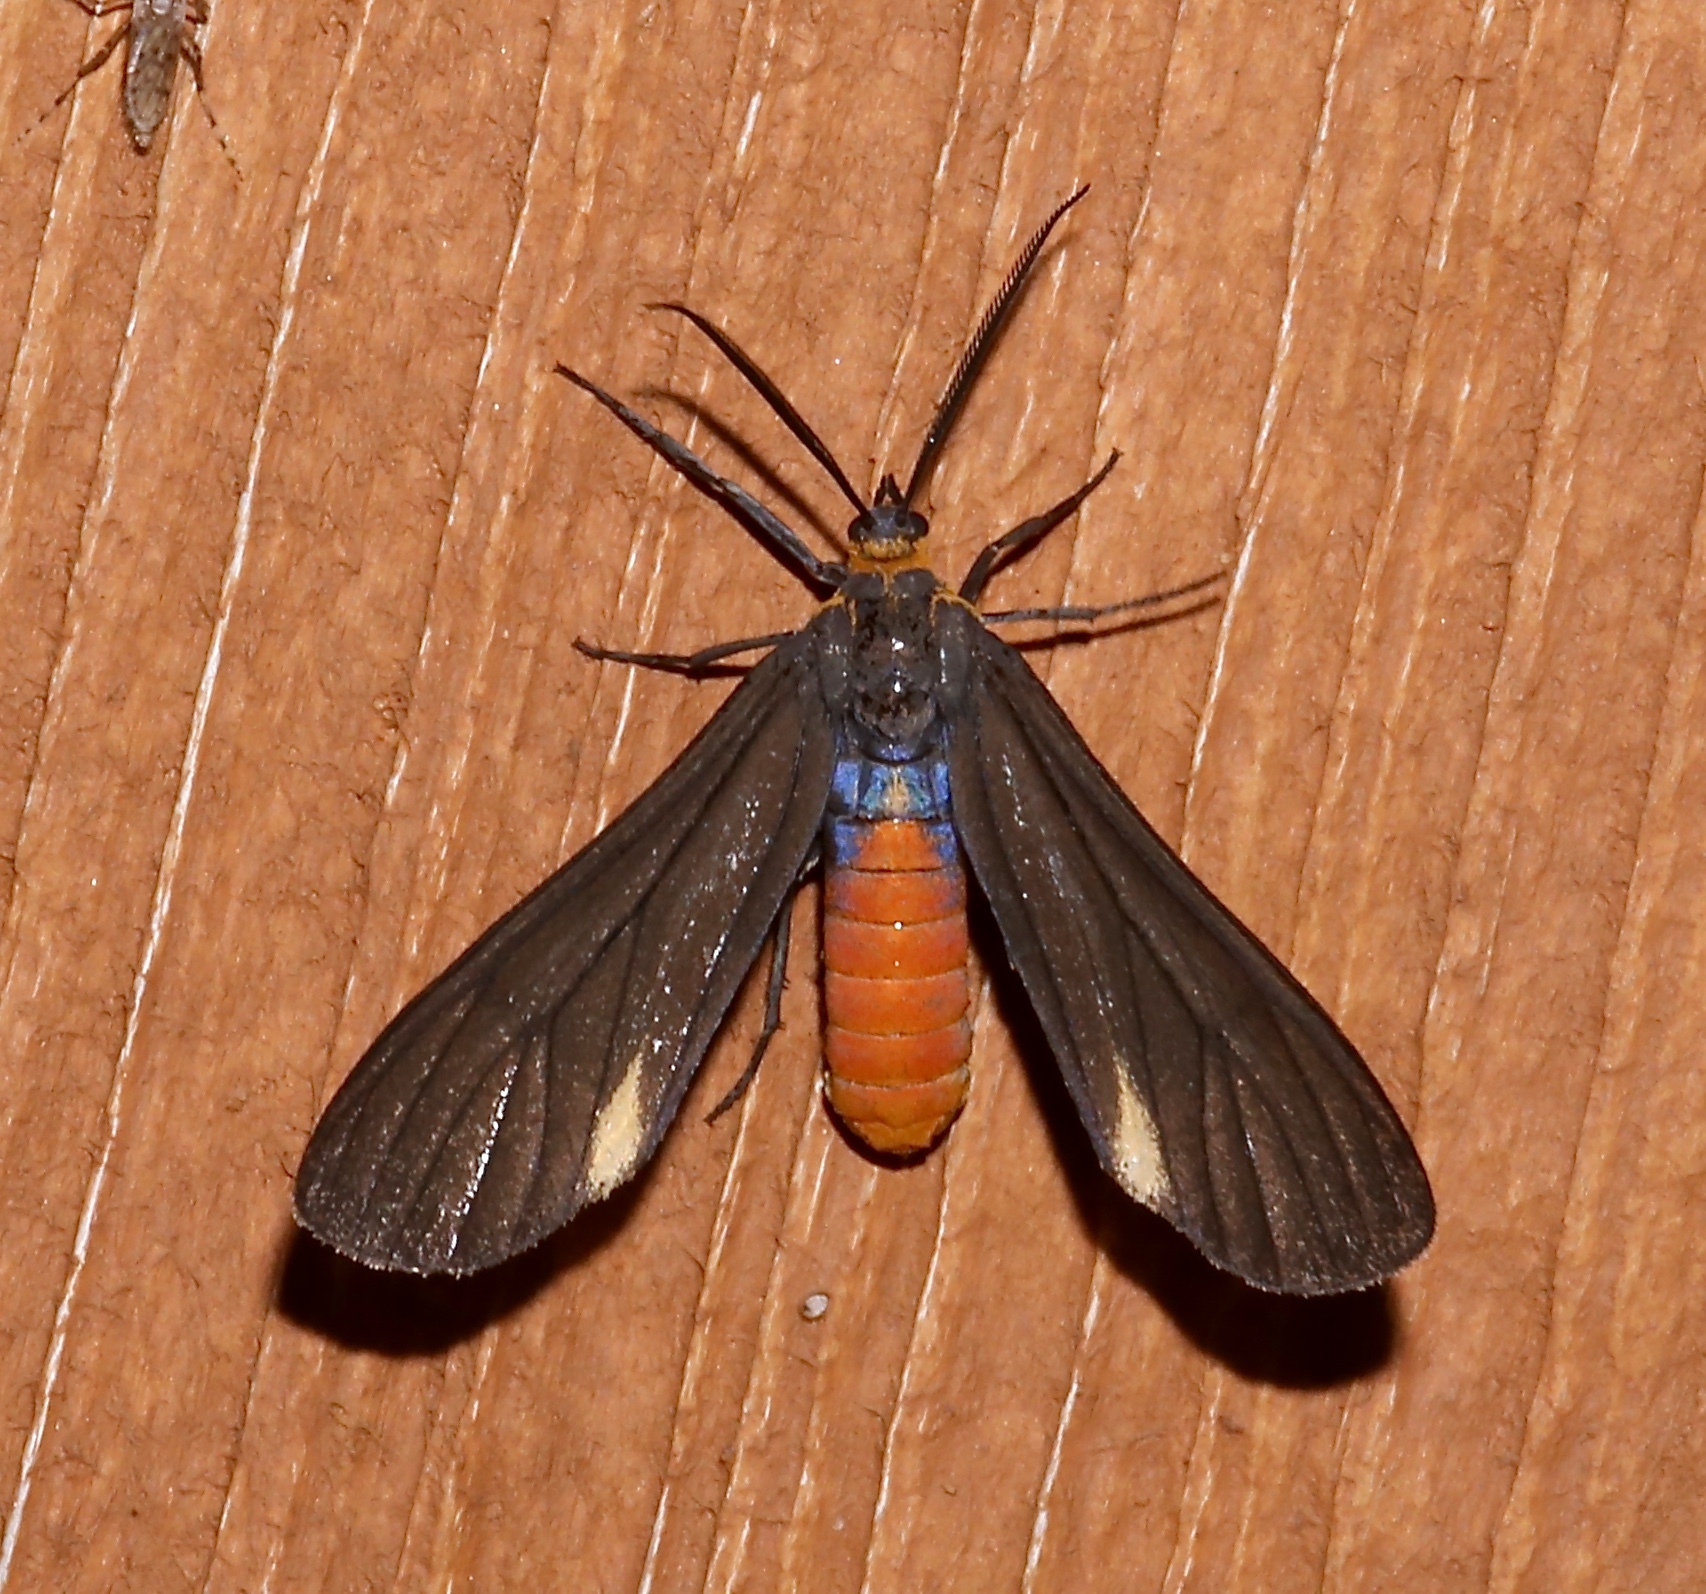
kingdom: Animalia
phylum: Arthropoda
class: Insecta
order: Lepidoptera
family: Erebidae
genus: Dahana
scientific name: Dahana atripennis
